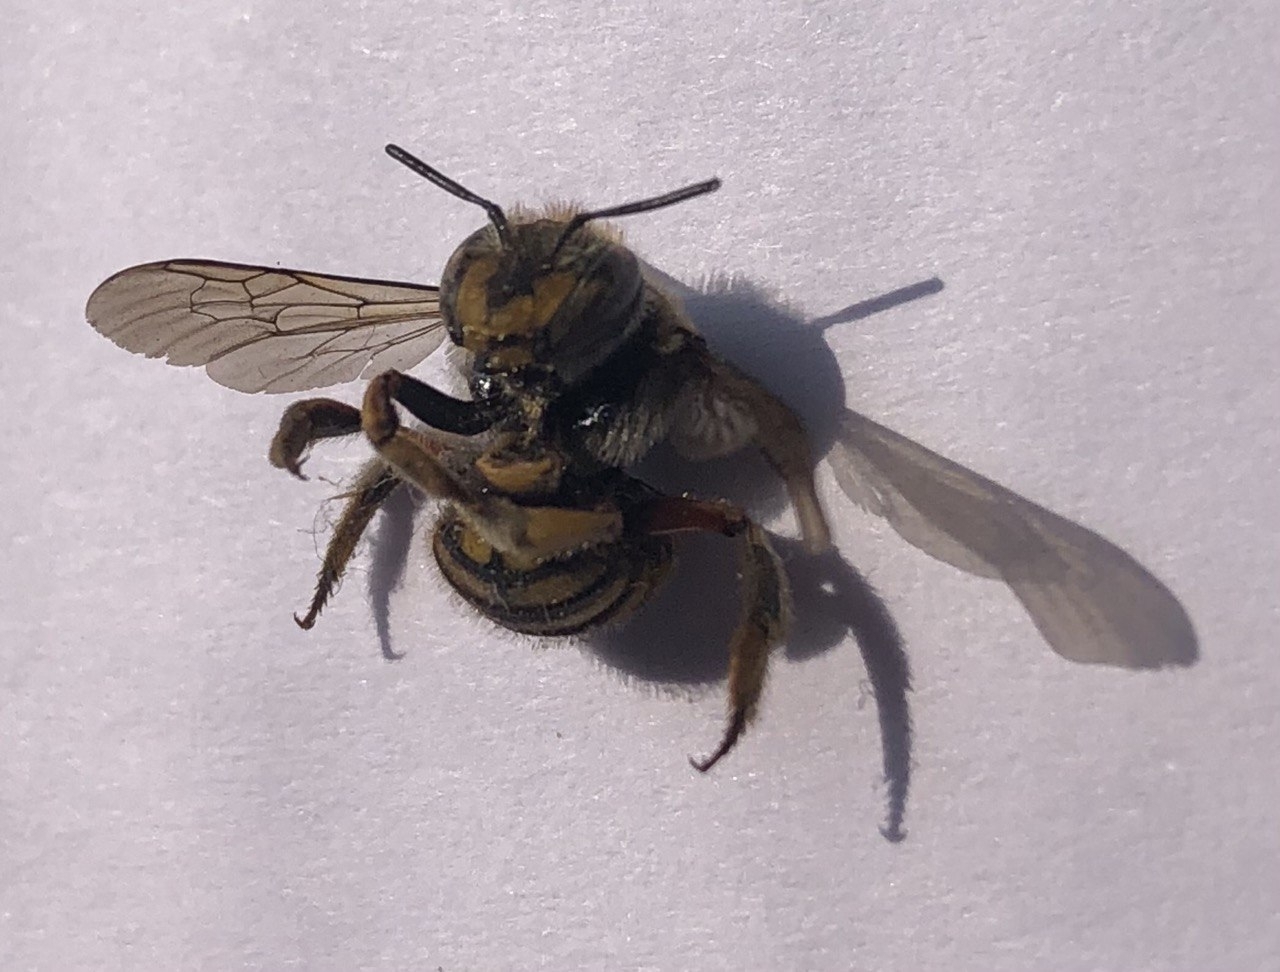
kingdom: Animalia
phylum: Arthropoda
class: Insecta
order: Hymenoptera
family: Megachilidae
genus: Anthidium
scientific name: Anthidium manicatum
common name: Wool carder bee
